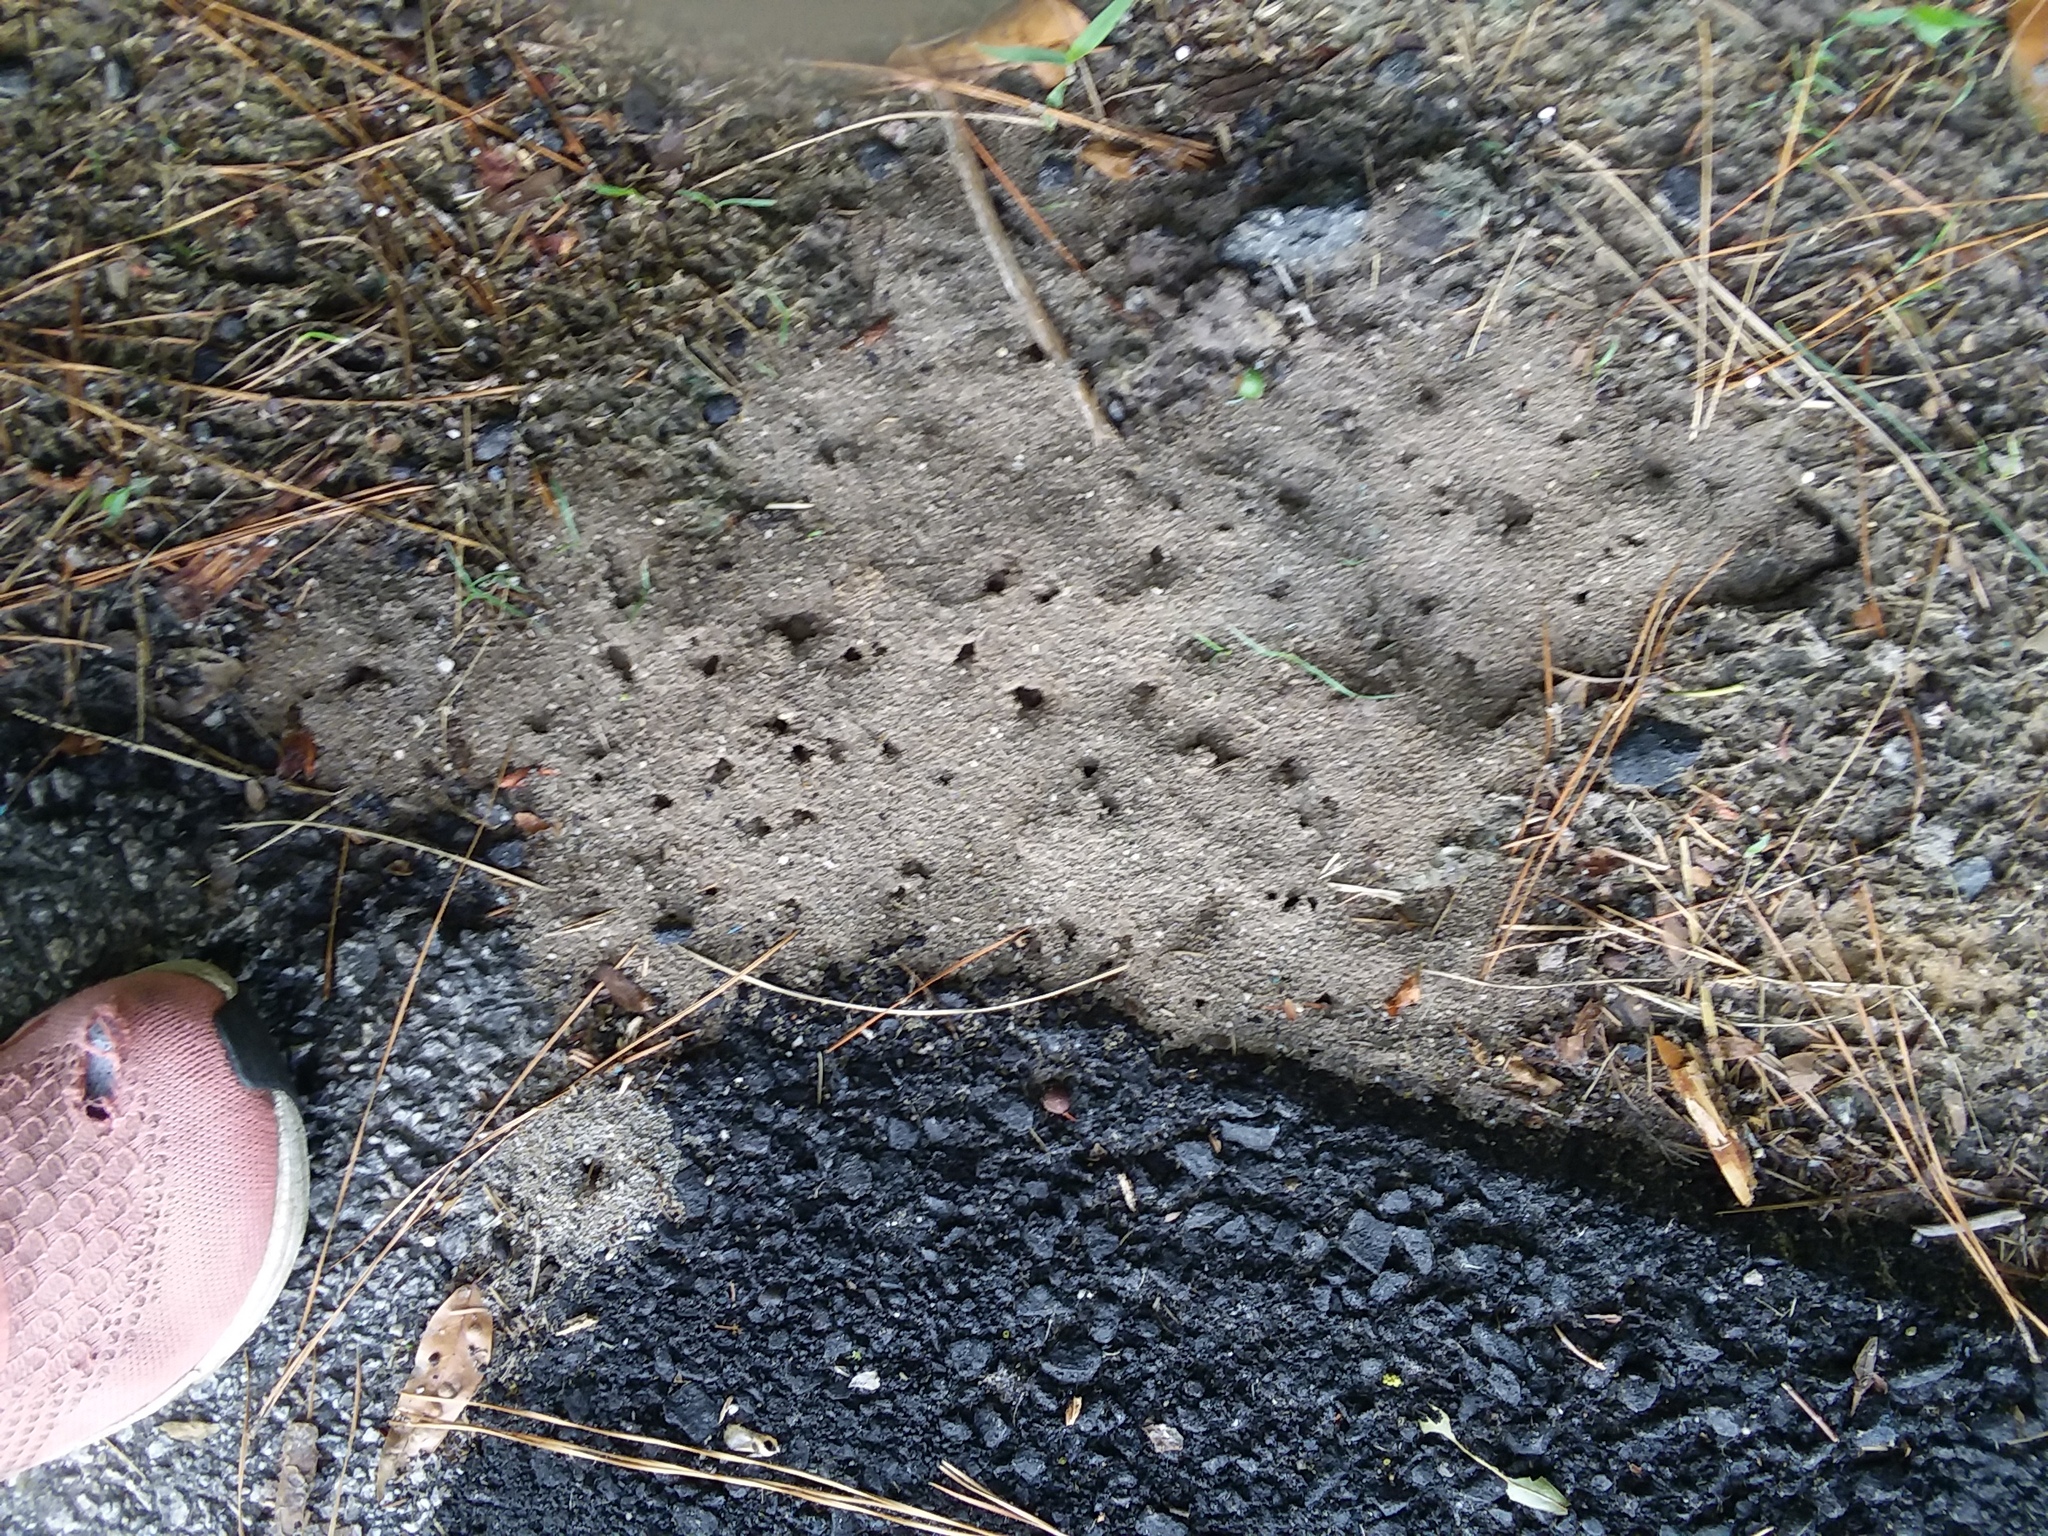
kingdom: Animalia
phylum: Arthropoda
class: Insecta
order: Hymenoptera
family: Formicidae
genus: Solenopsis
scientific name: Solenopsis invicta
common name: Red imported fire ant
